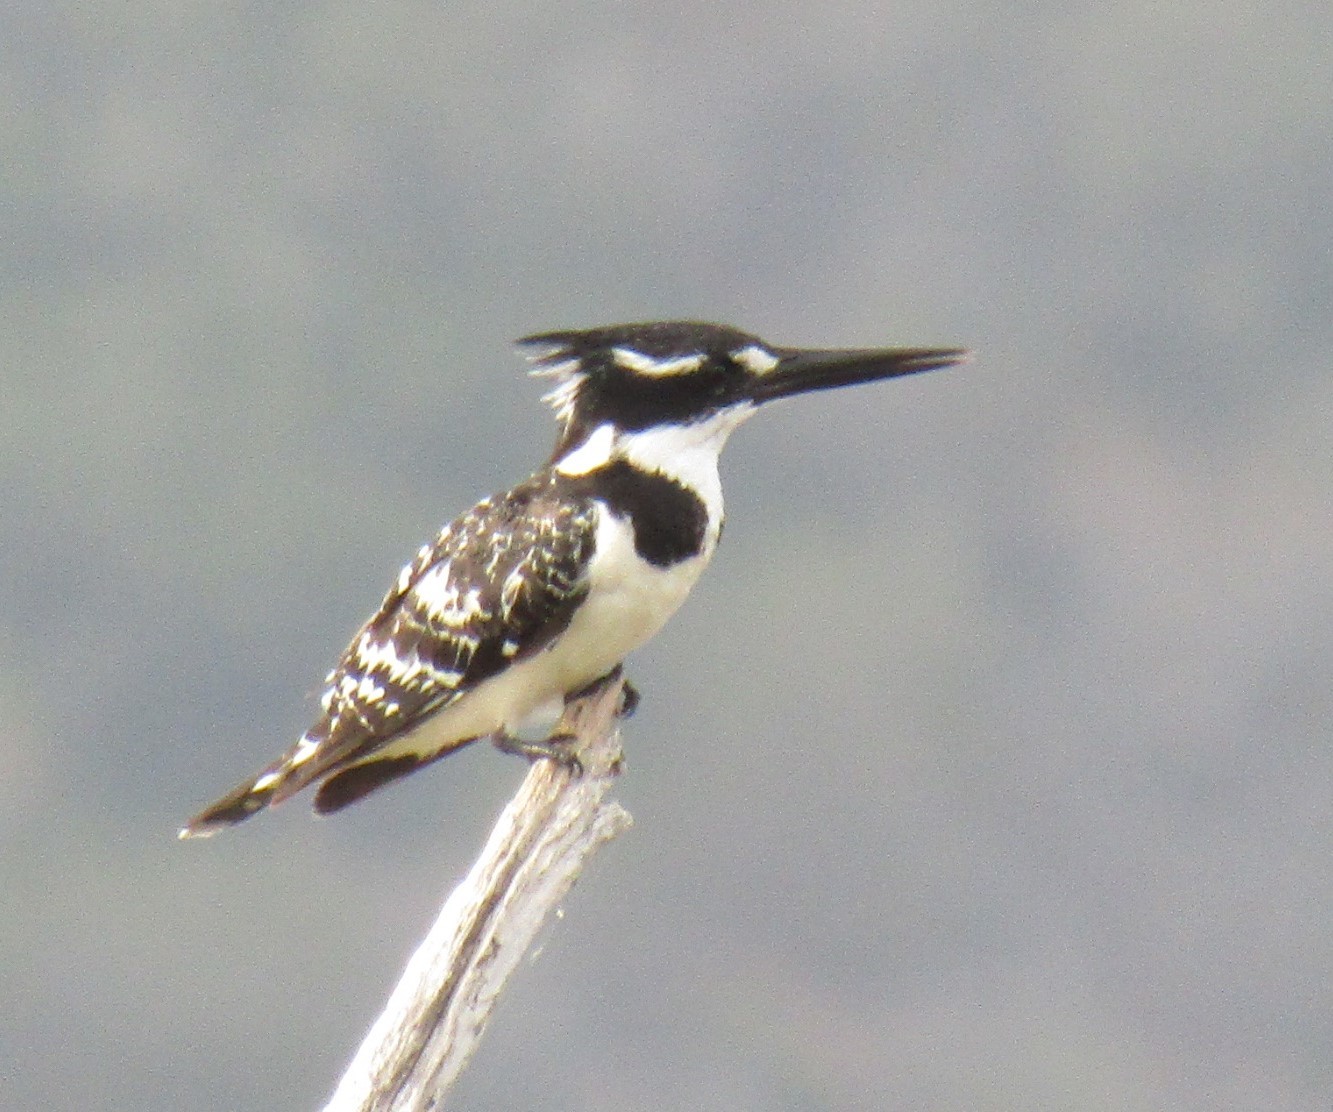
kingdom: Animalia
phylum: Chordata
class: Aves
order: Coraciiformes
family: Alcedinidae
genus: Ceryle
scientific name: Ceryle rudis
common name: Pied kingfisher
